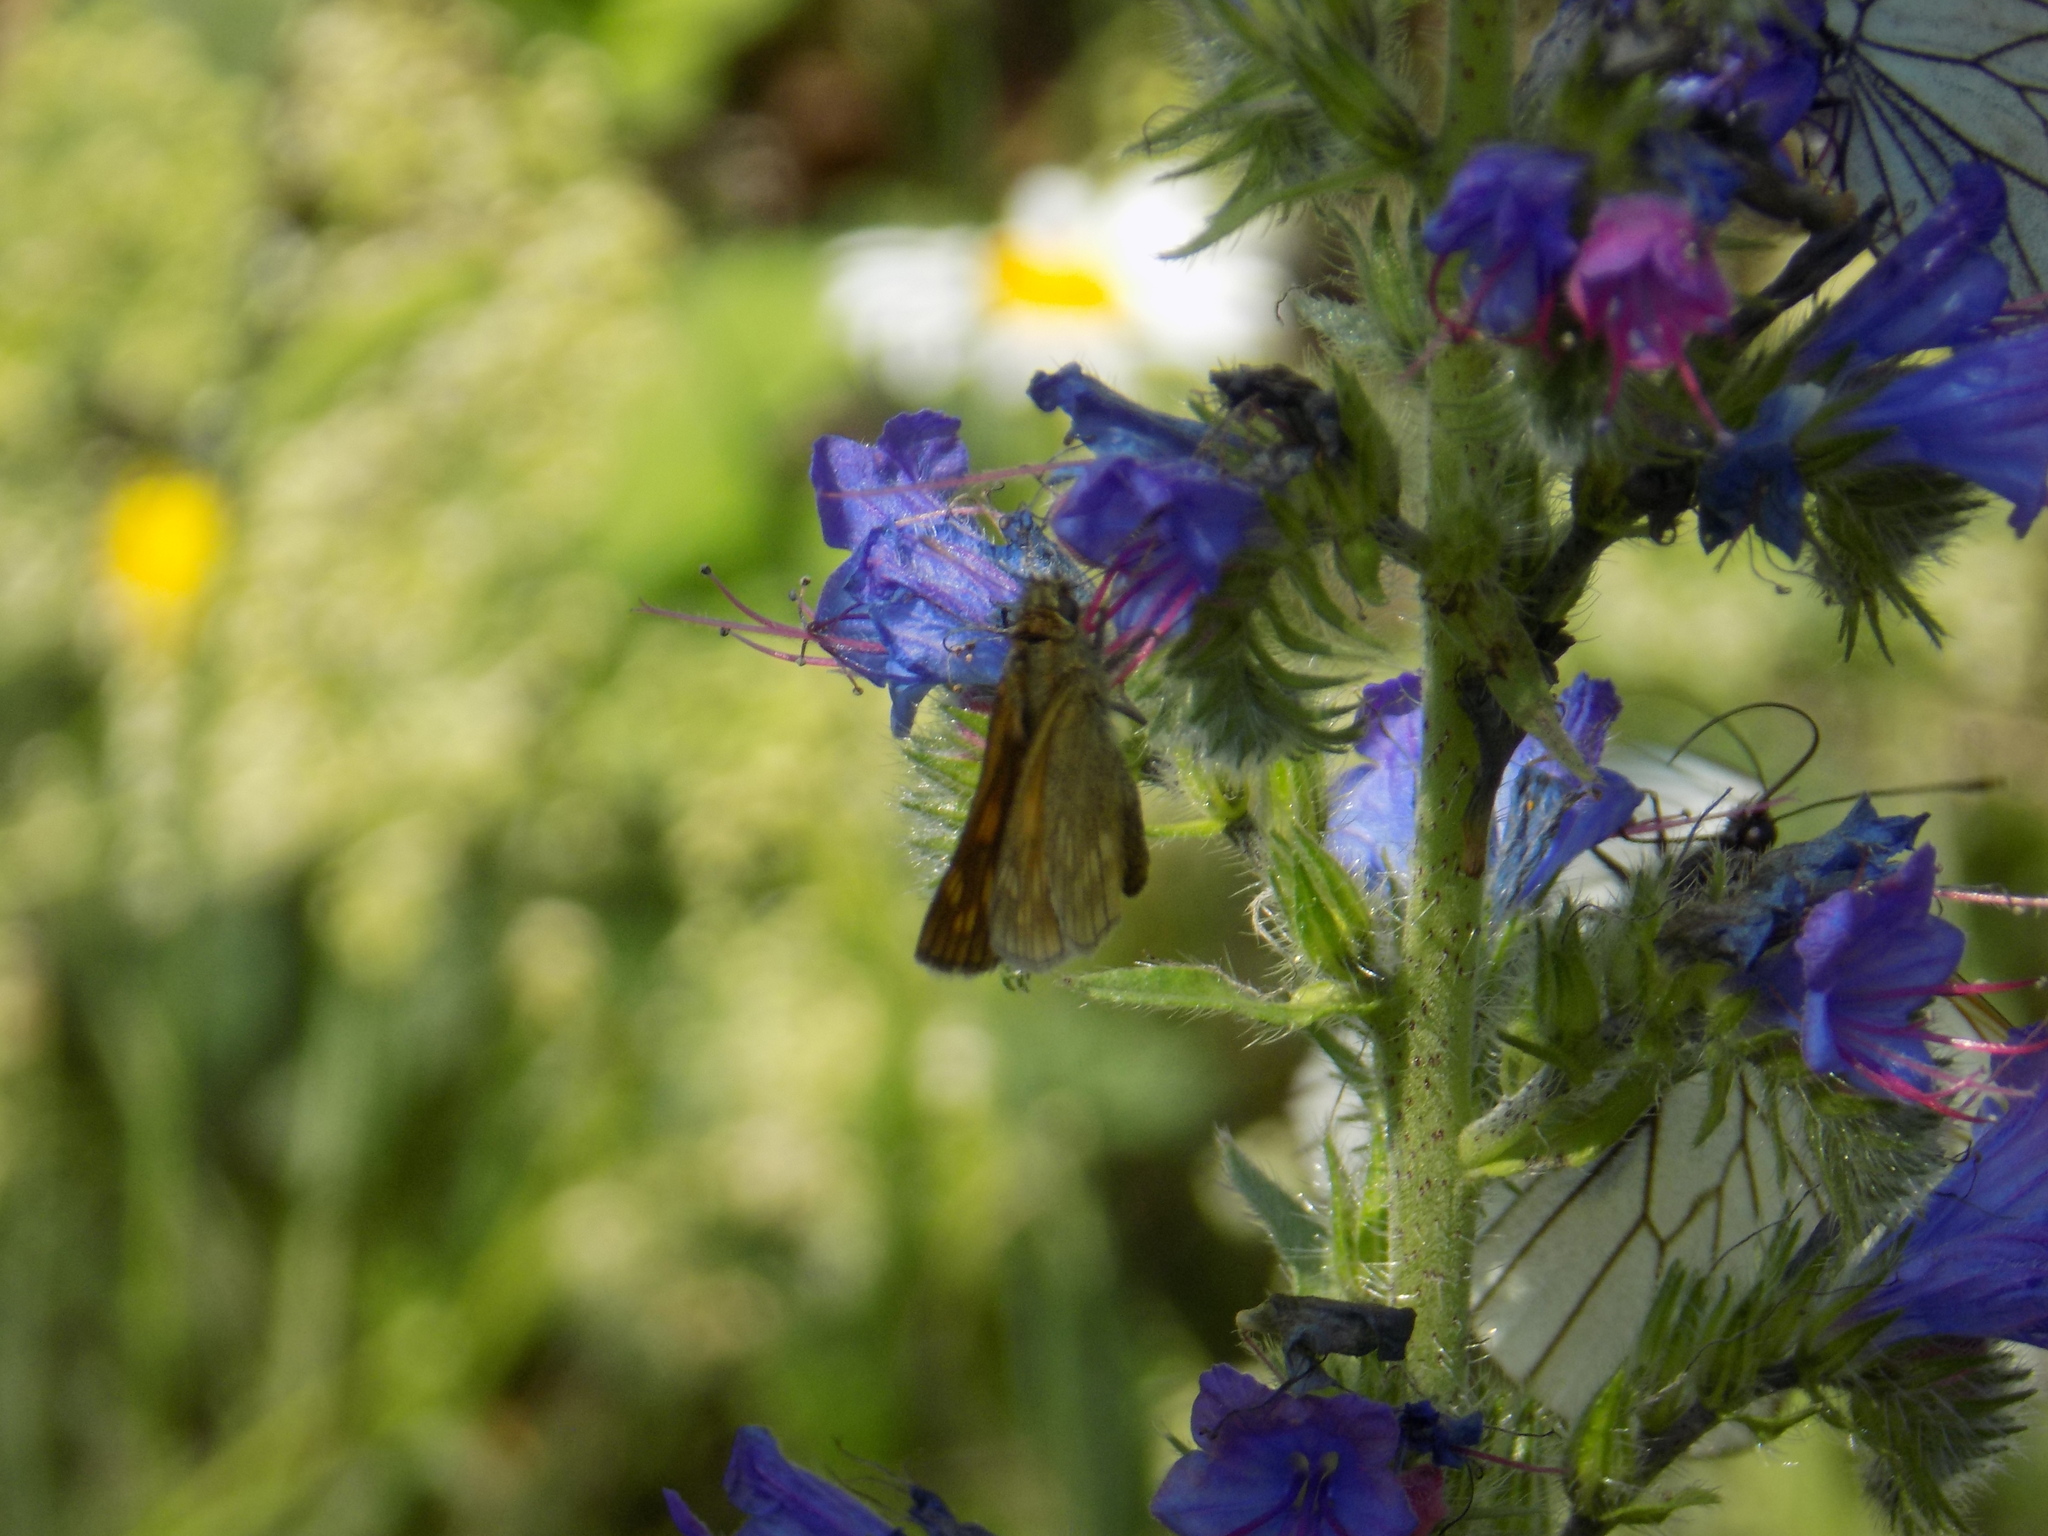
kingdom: Animalia
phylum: Arthropoda
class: Insecta
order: Lepidoptera
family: Hesperiidae
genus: Ochlodes
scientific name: Ochlodes venata
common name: Large skipper
